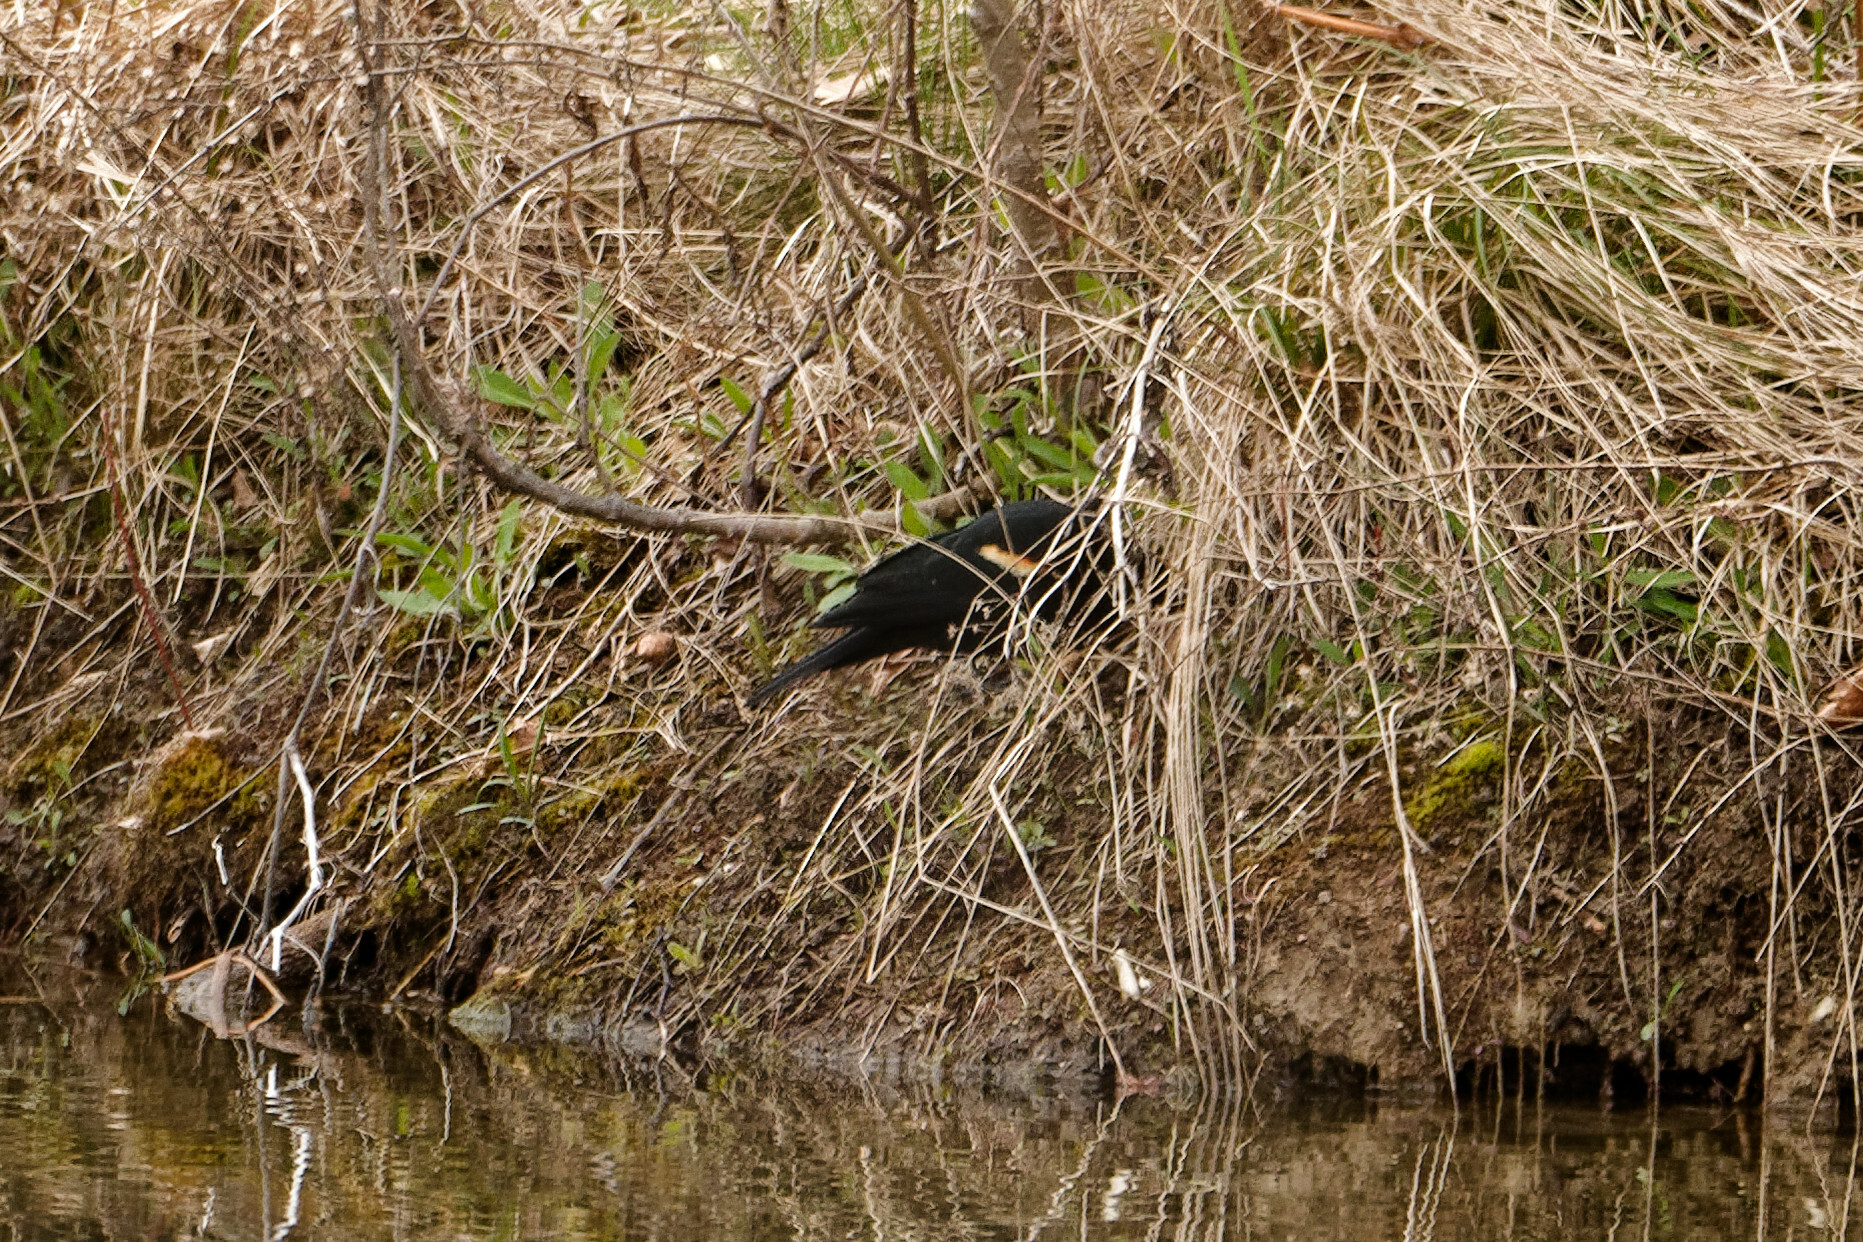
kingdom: Animalia
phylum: Chordata
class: Aves
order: Passeriformes
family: Icteridae
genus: Agelaius
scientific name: Agelaius phoeniceus
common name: Red-winged blackbird
